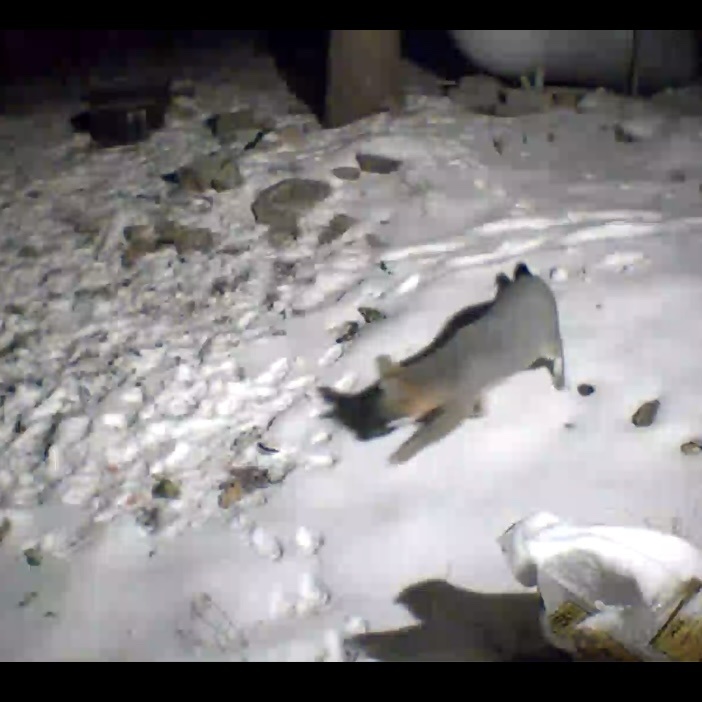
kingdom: Animalia
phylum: Chordata
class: Mammalia
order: Carnivora
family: Canidae
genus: Urocyon
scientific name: Urocyon cinereoargenteus
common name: Gray fox
